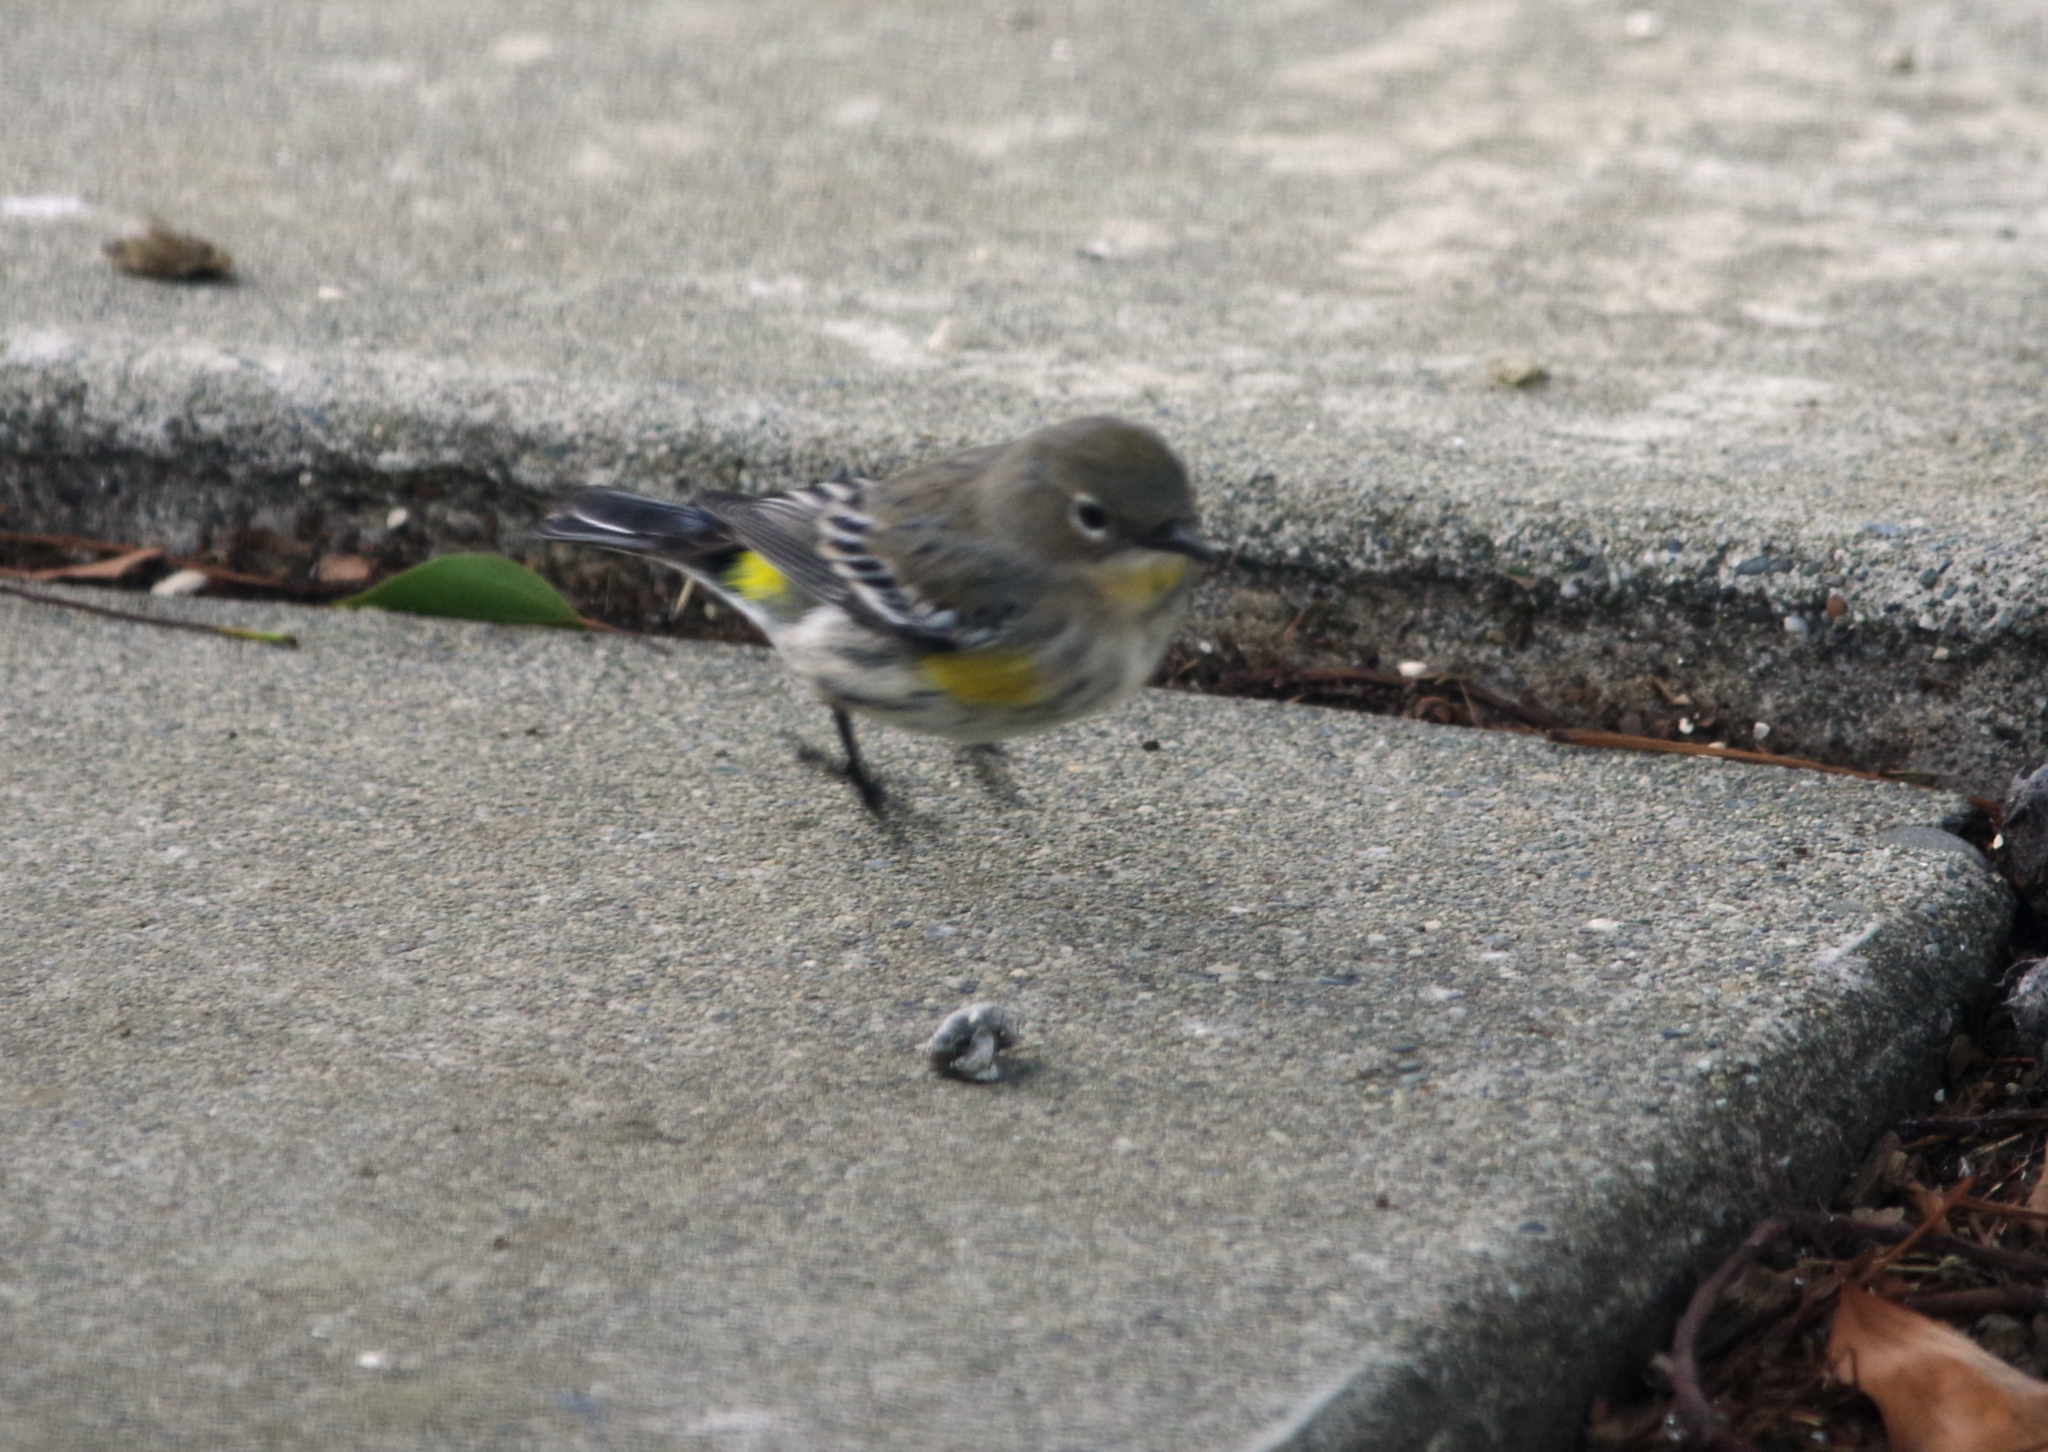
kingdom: Animalia
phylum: Chordata
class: Aves
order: Passeriformes
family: Parulidae
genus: Setophaga
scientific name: Setophaga coronata
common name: Myrtle warbler
